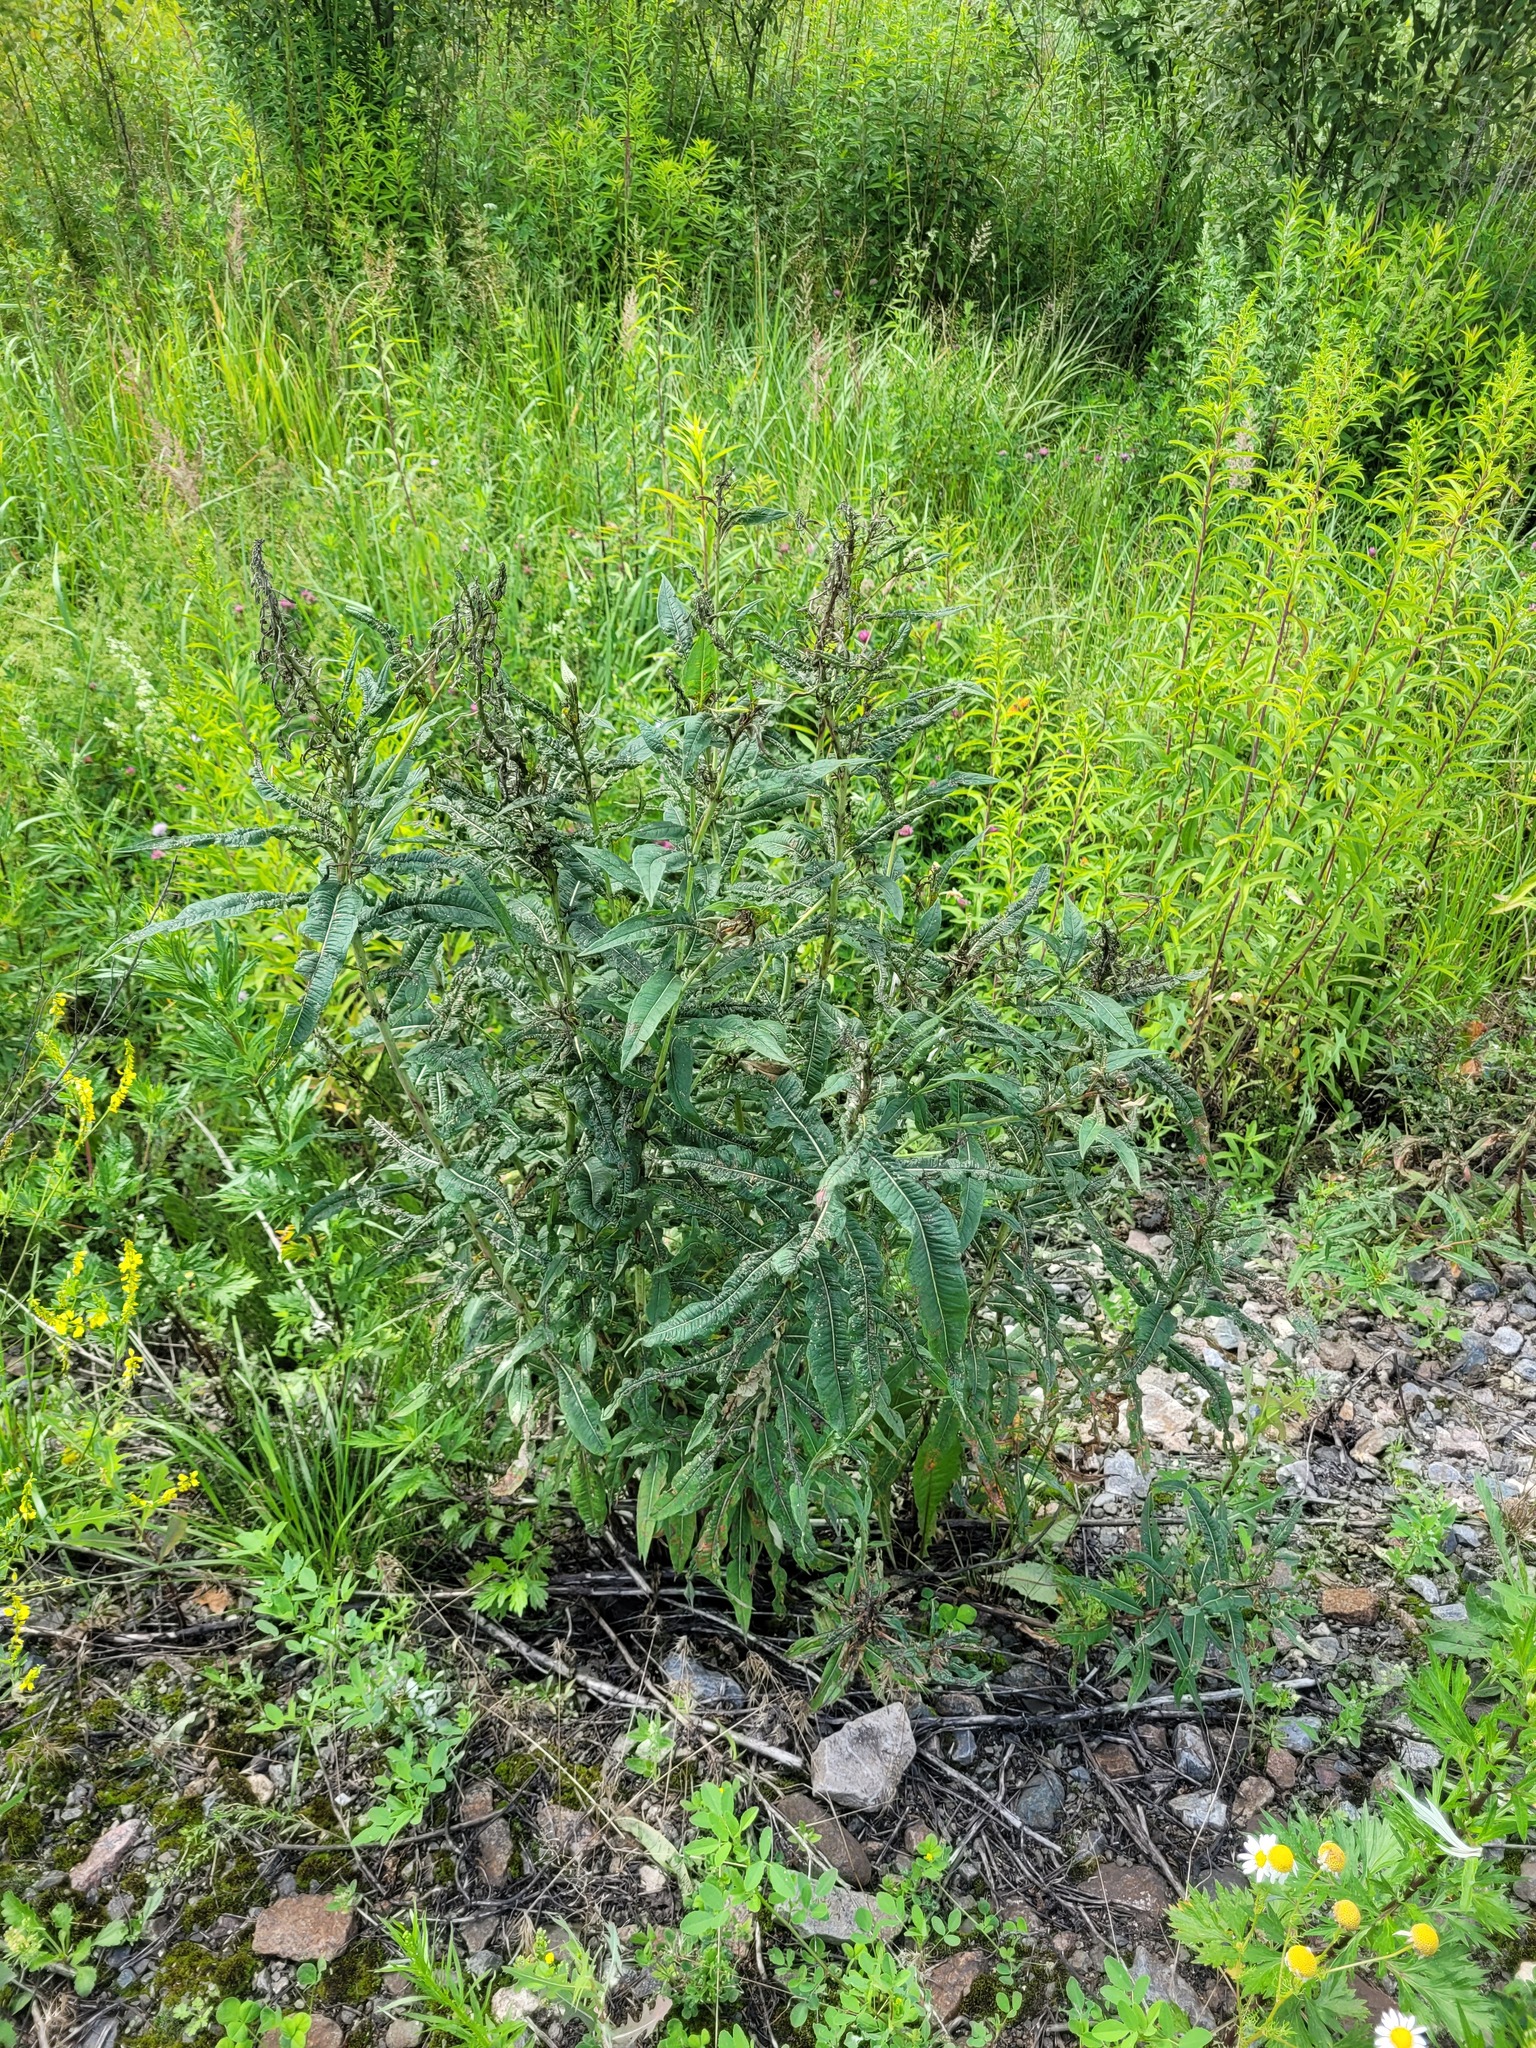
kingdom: Plantae
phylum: Tracheophyta
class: Magnoliopsida
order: Myrtales
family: Onagraceae
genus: Chamaenerion
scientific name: Chamaenerion angustifolium
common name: Fireweed
